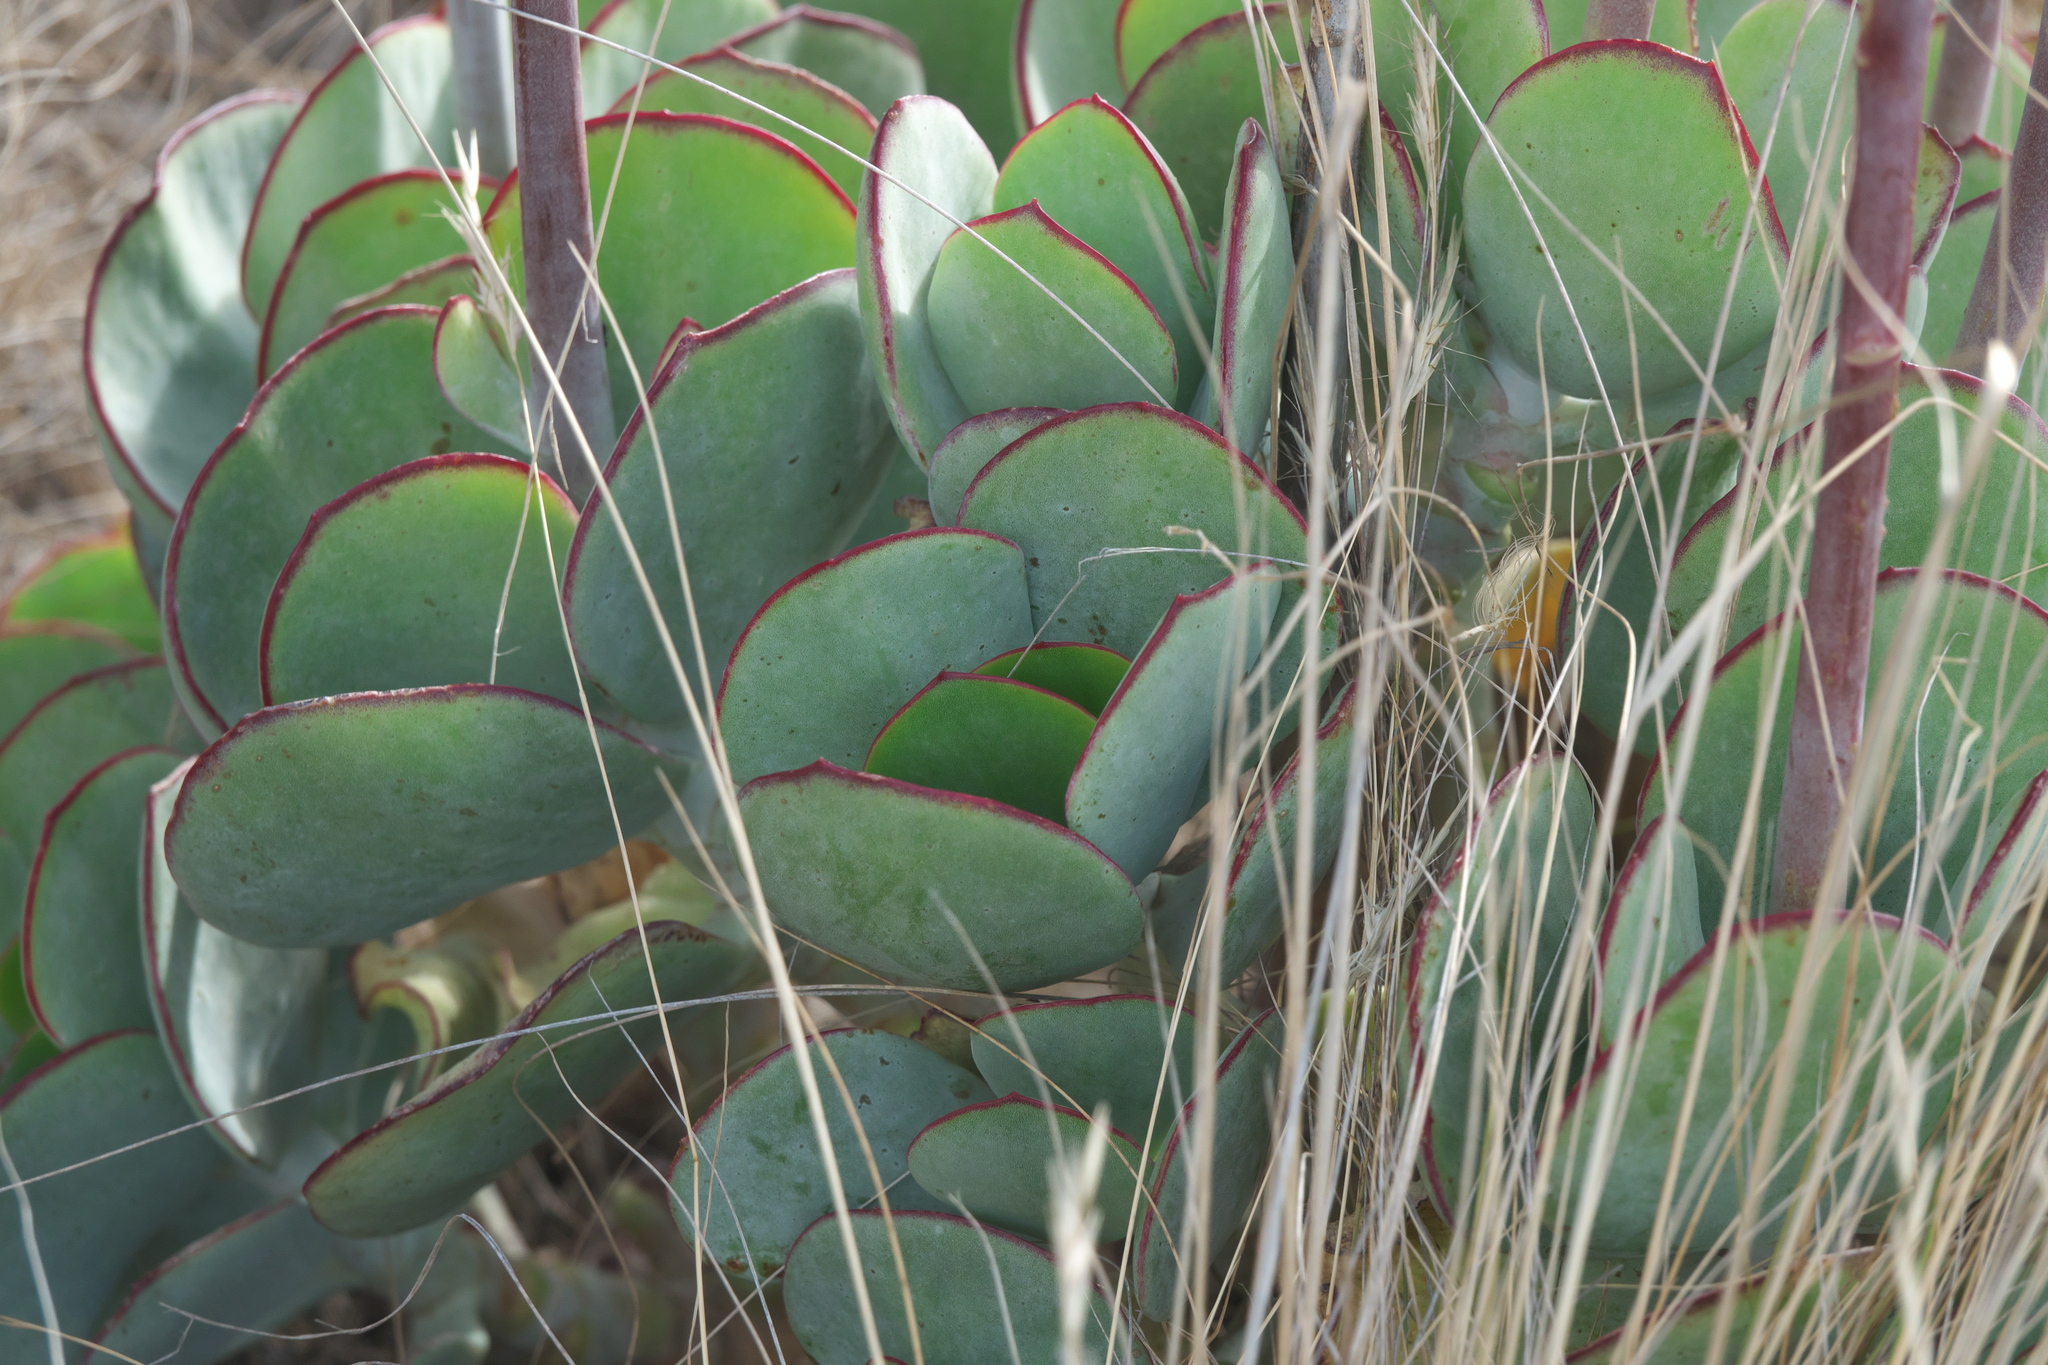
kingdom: Plantae
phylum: Tracheophyta
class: Magnoliopsida
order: Saxifragales
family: Crassulaceae
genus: Cotyledon
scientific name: Cotyledon orbiculata
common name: Pig's ear
